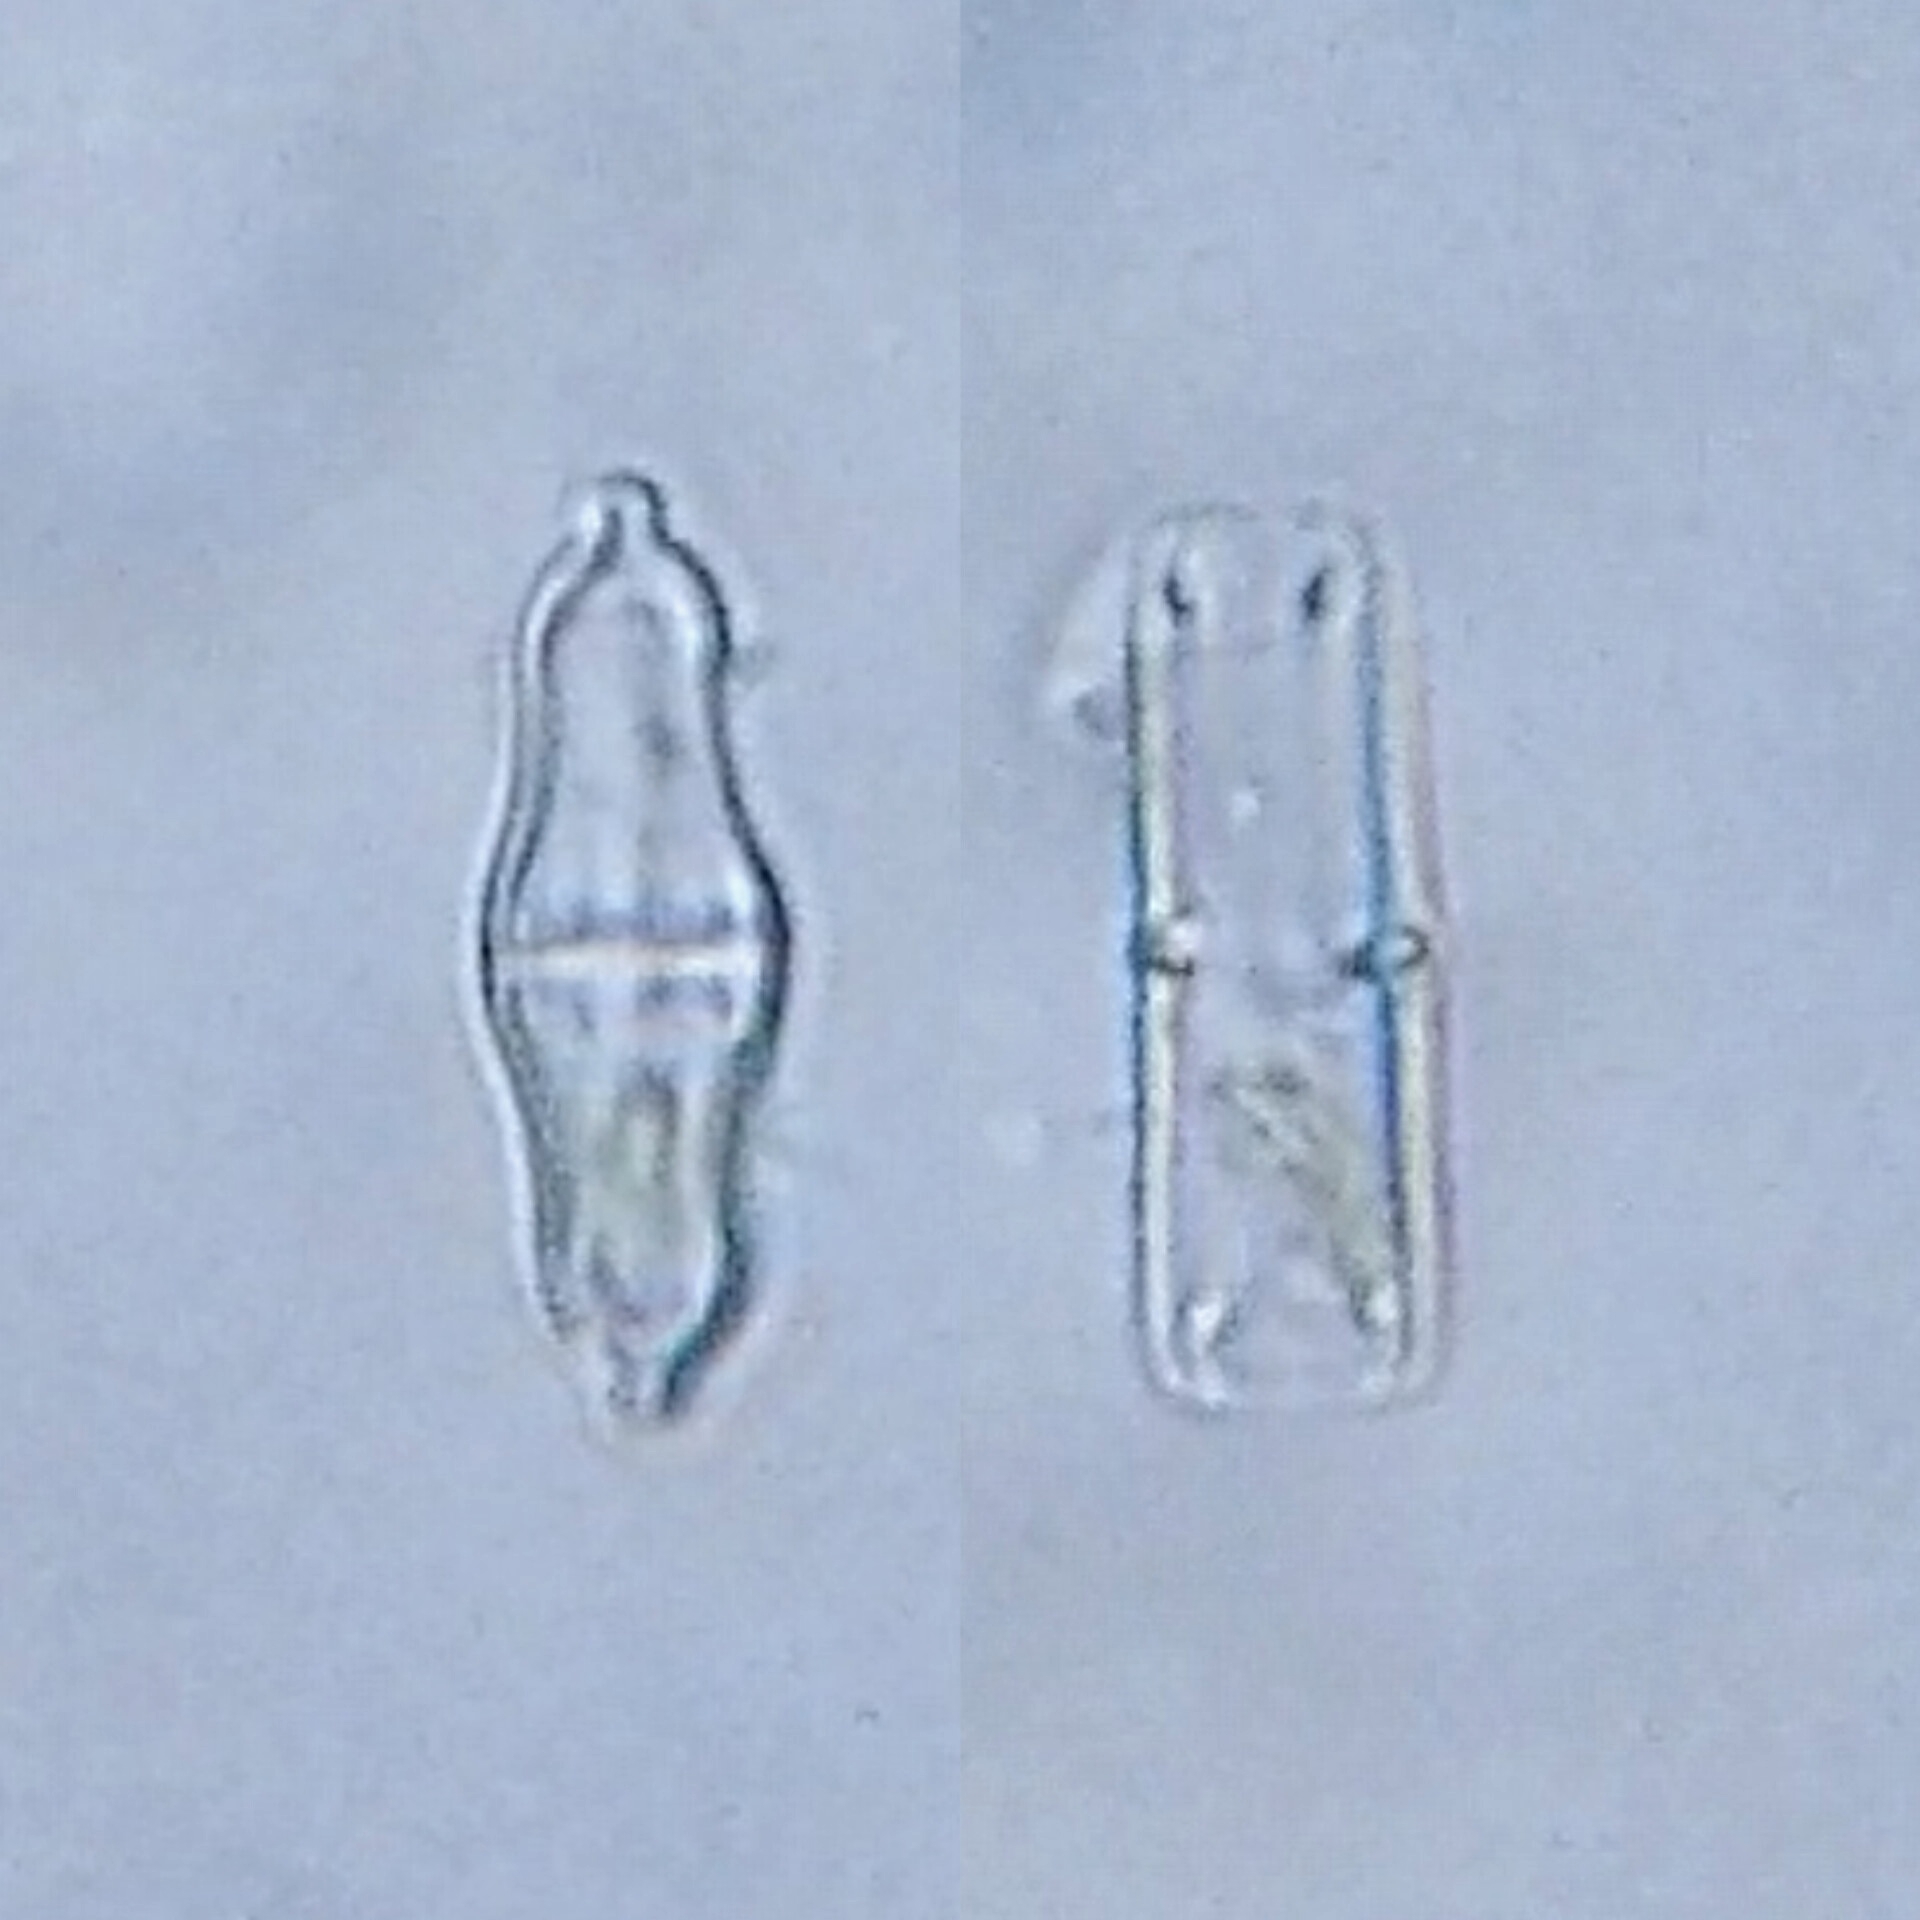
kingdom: Chromista
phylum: Ochrophyta
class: Bacillariophyceae
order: Naviculales
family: Stauroneidaceae
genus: Stauroneis
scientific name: Stauroneis smithii
